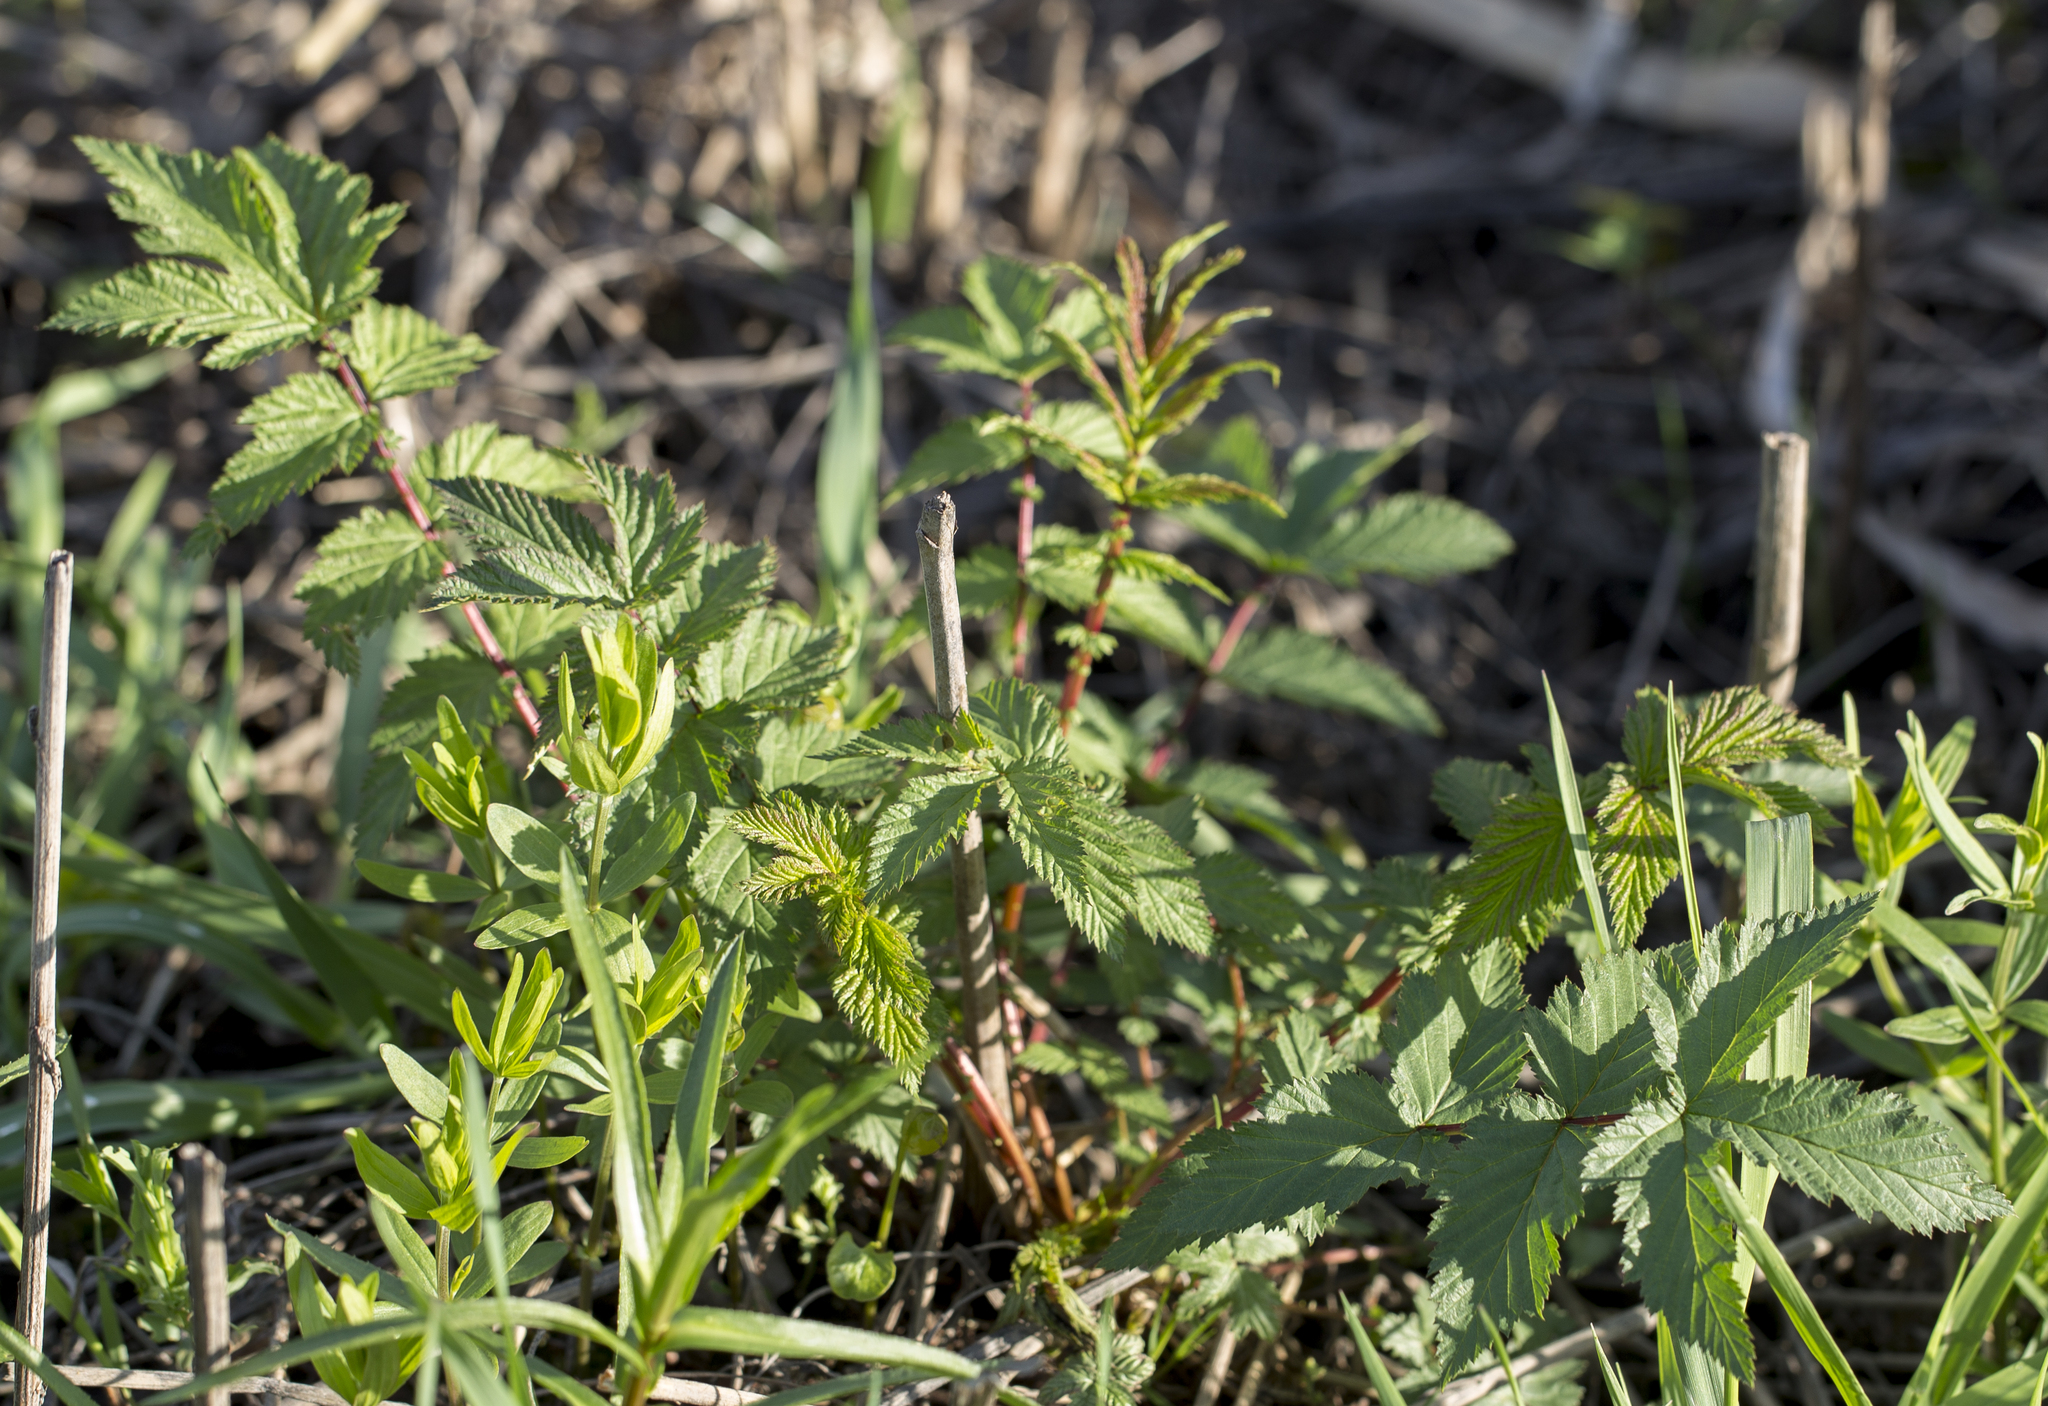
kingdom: Plantae
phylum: Tracheophyta
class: Magnoliopsida
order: Rosales
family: Rosaceae
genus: Filipendula
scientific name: Filipendula ulmaria
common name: Meadowsweet
